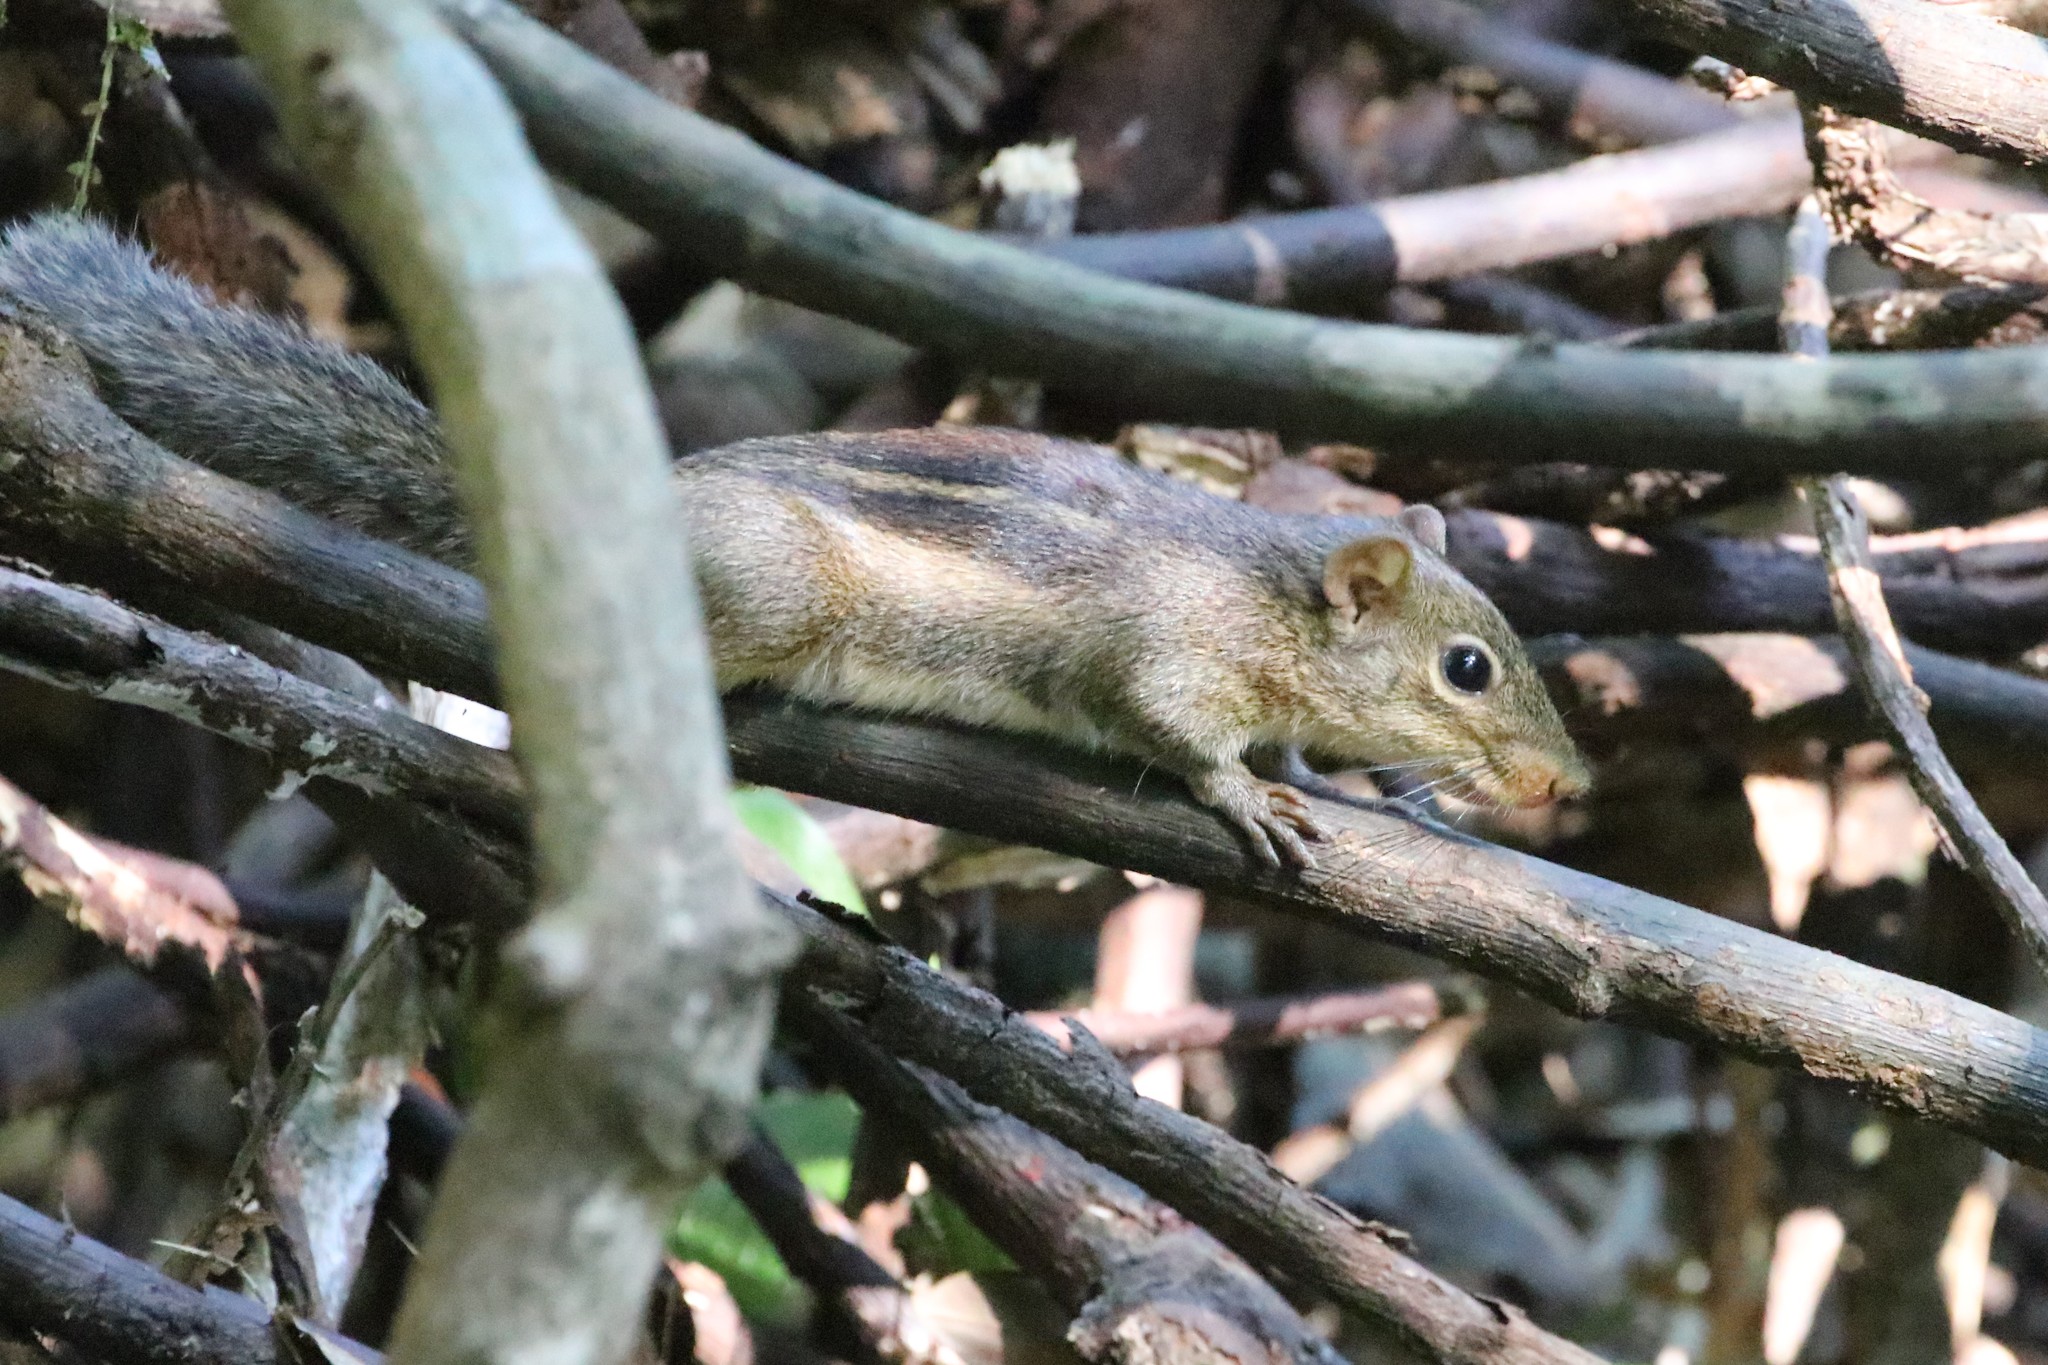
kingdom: Animalia
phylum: Chordata
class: Mammalia
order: Rodentia
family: Sciuridae
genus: Menetes
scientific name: Menetes berdmorei
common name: Indochinese ground squirrel
